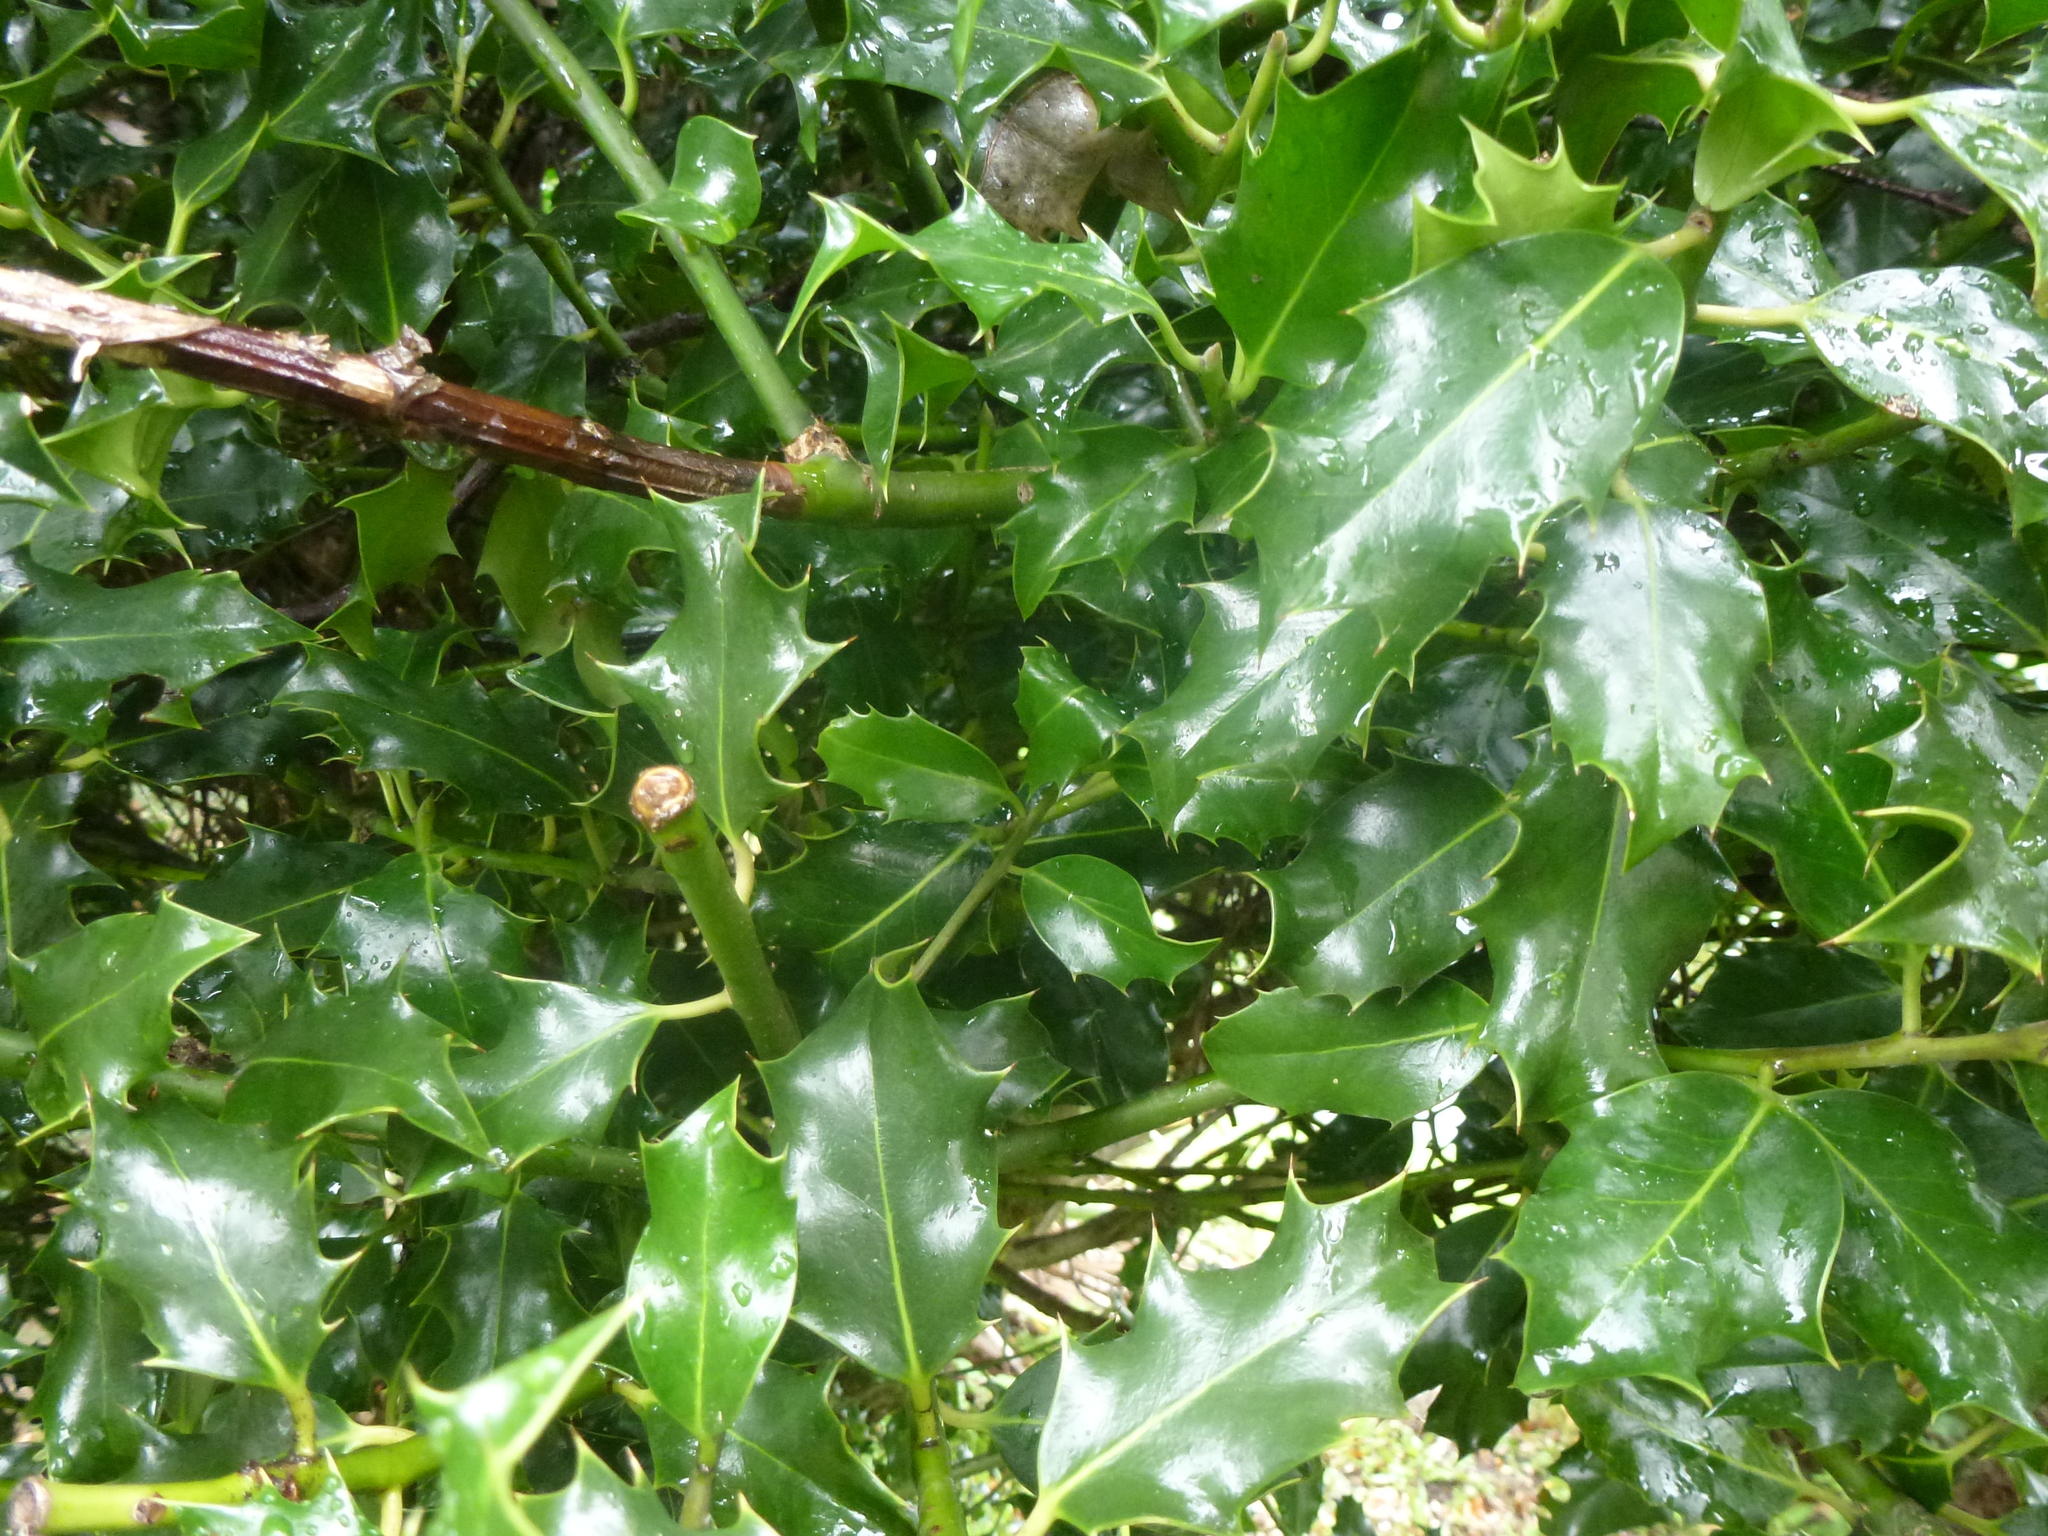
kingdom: Plantae
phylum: Tracheophyta
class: Magnoliopsida
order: Aquifoliales
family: Aquifoliaceae
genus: Ilex
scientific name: Ilex aquifolium
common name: English holly
